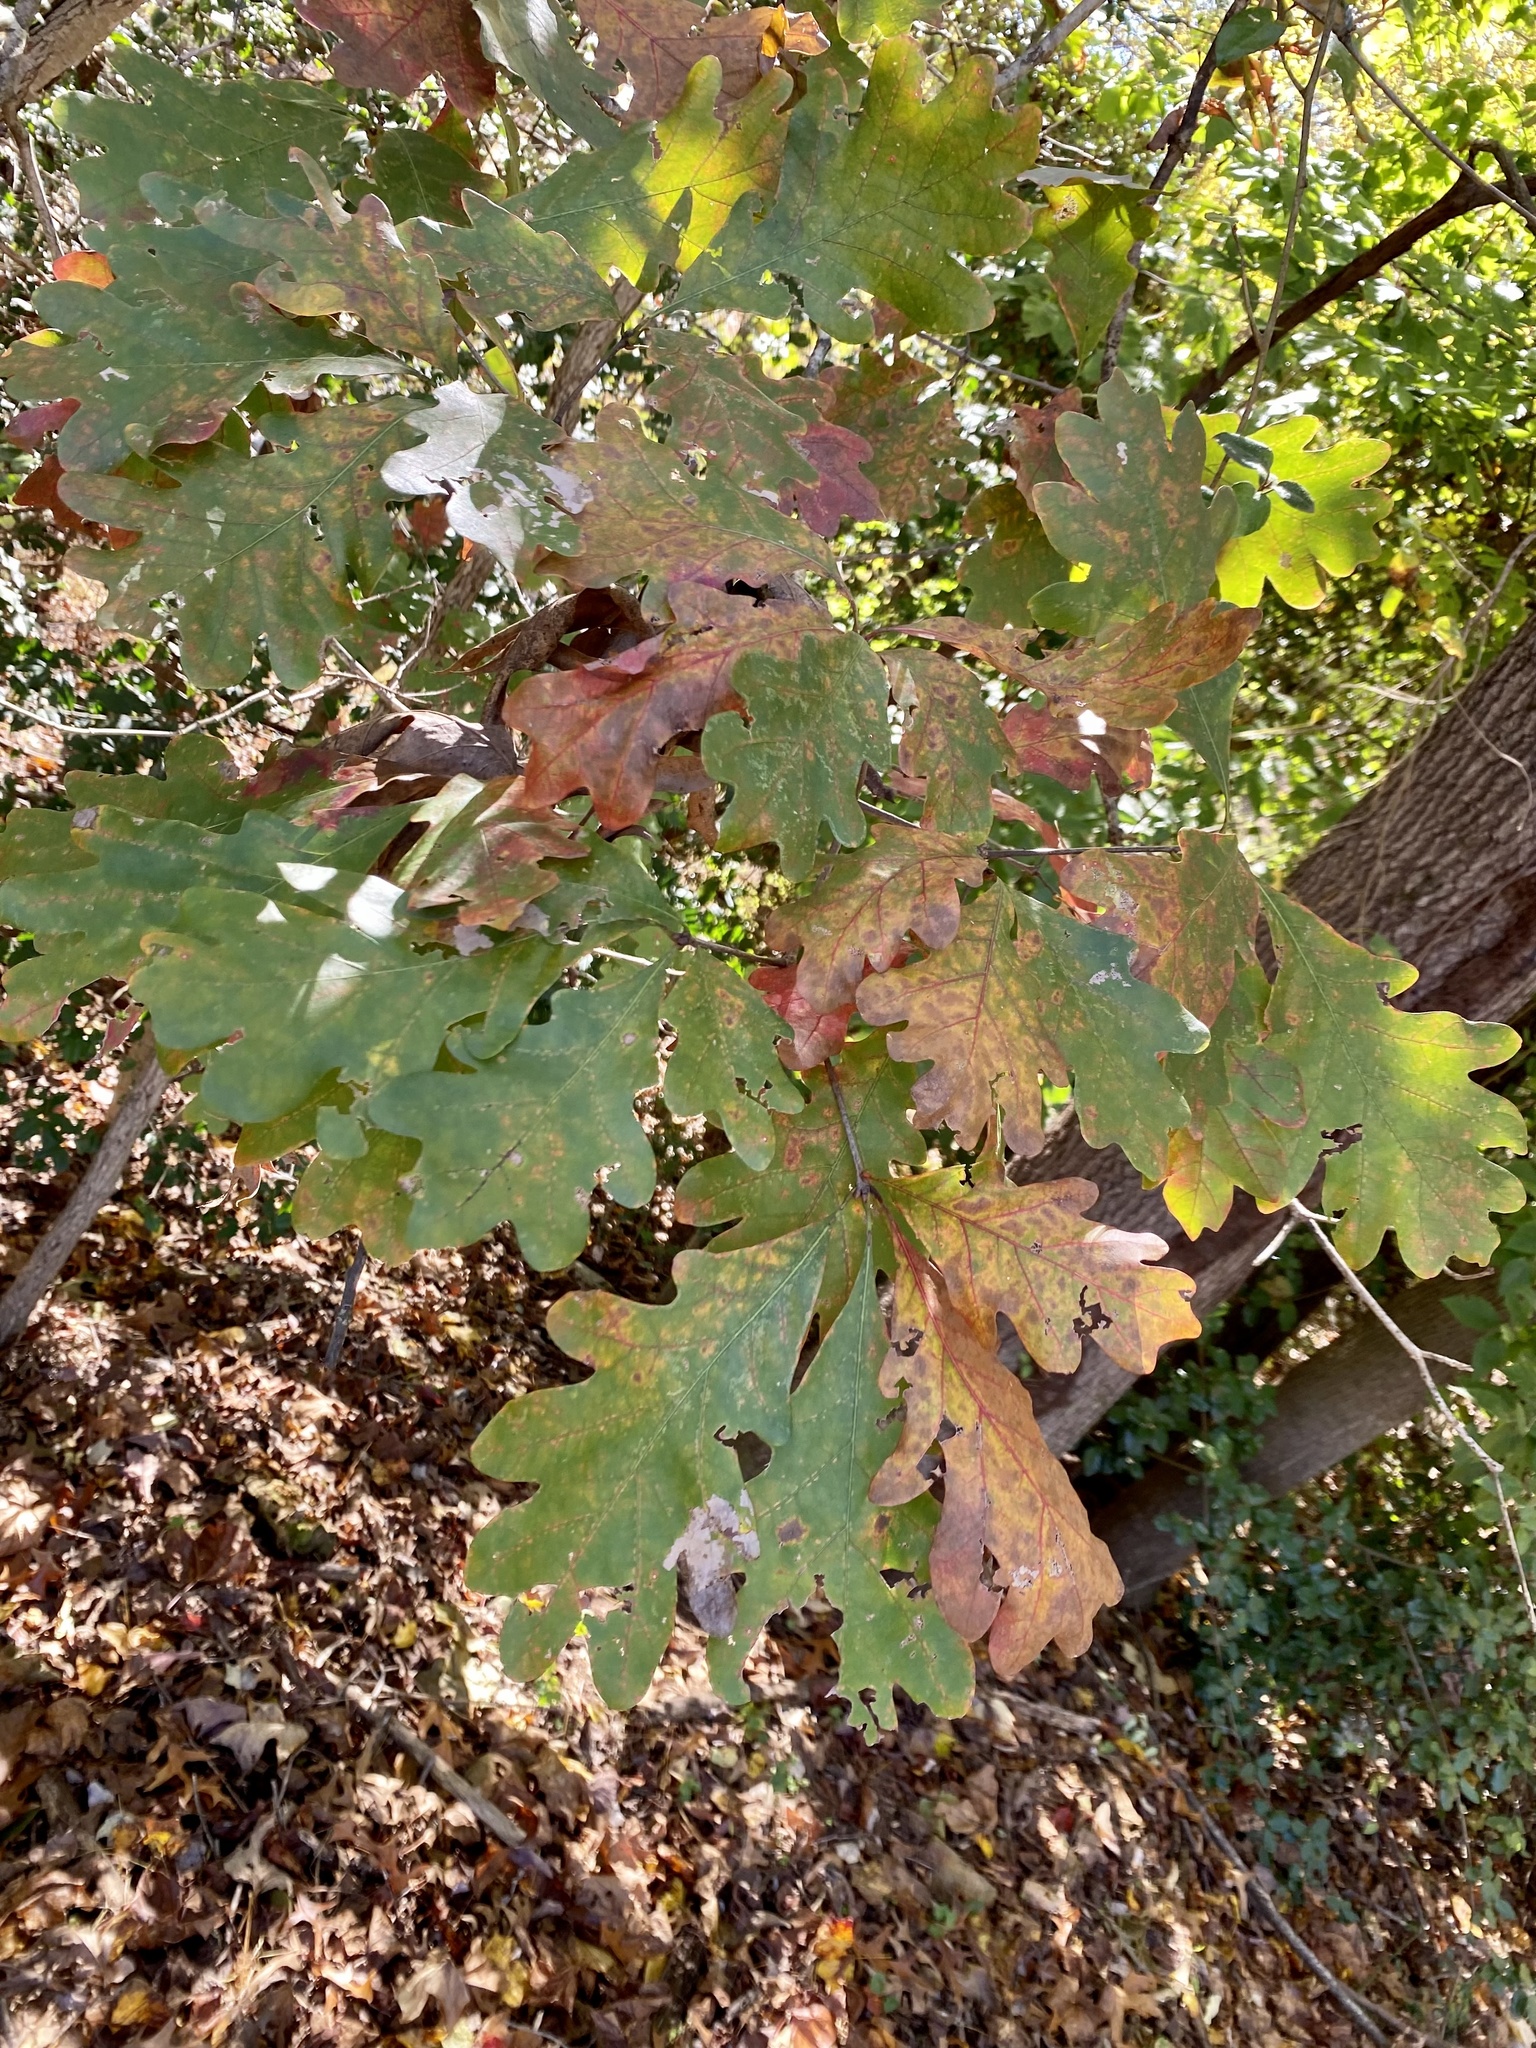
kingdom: Plantae
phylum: Tracheophyta
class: Magnoliopsida
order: Fagales
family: Fagaceae
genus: Quercus
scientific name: Quercus alba
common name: White oak
